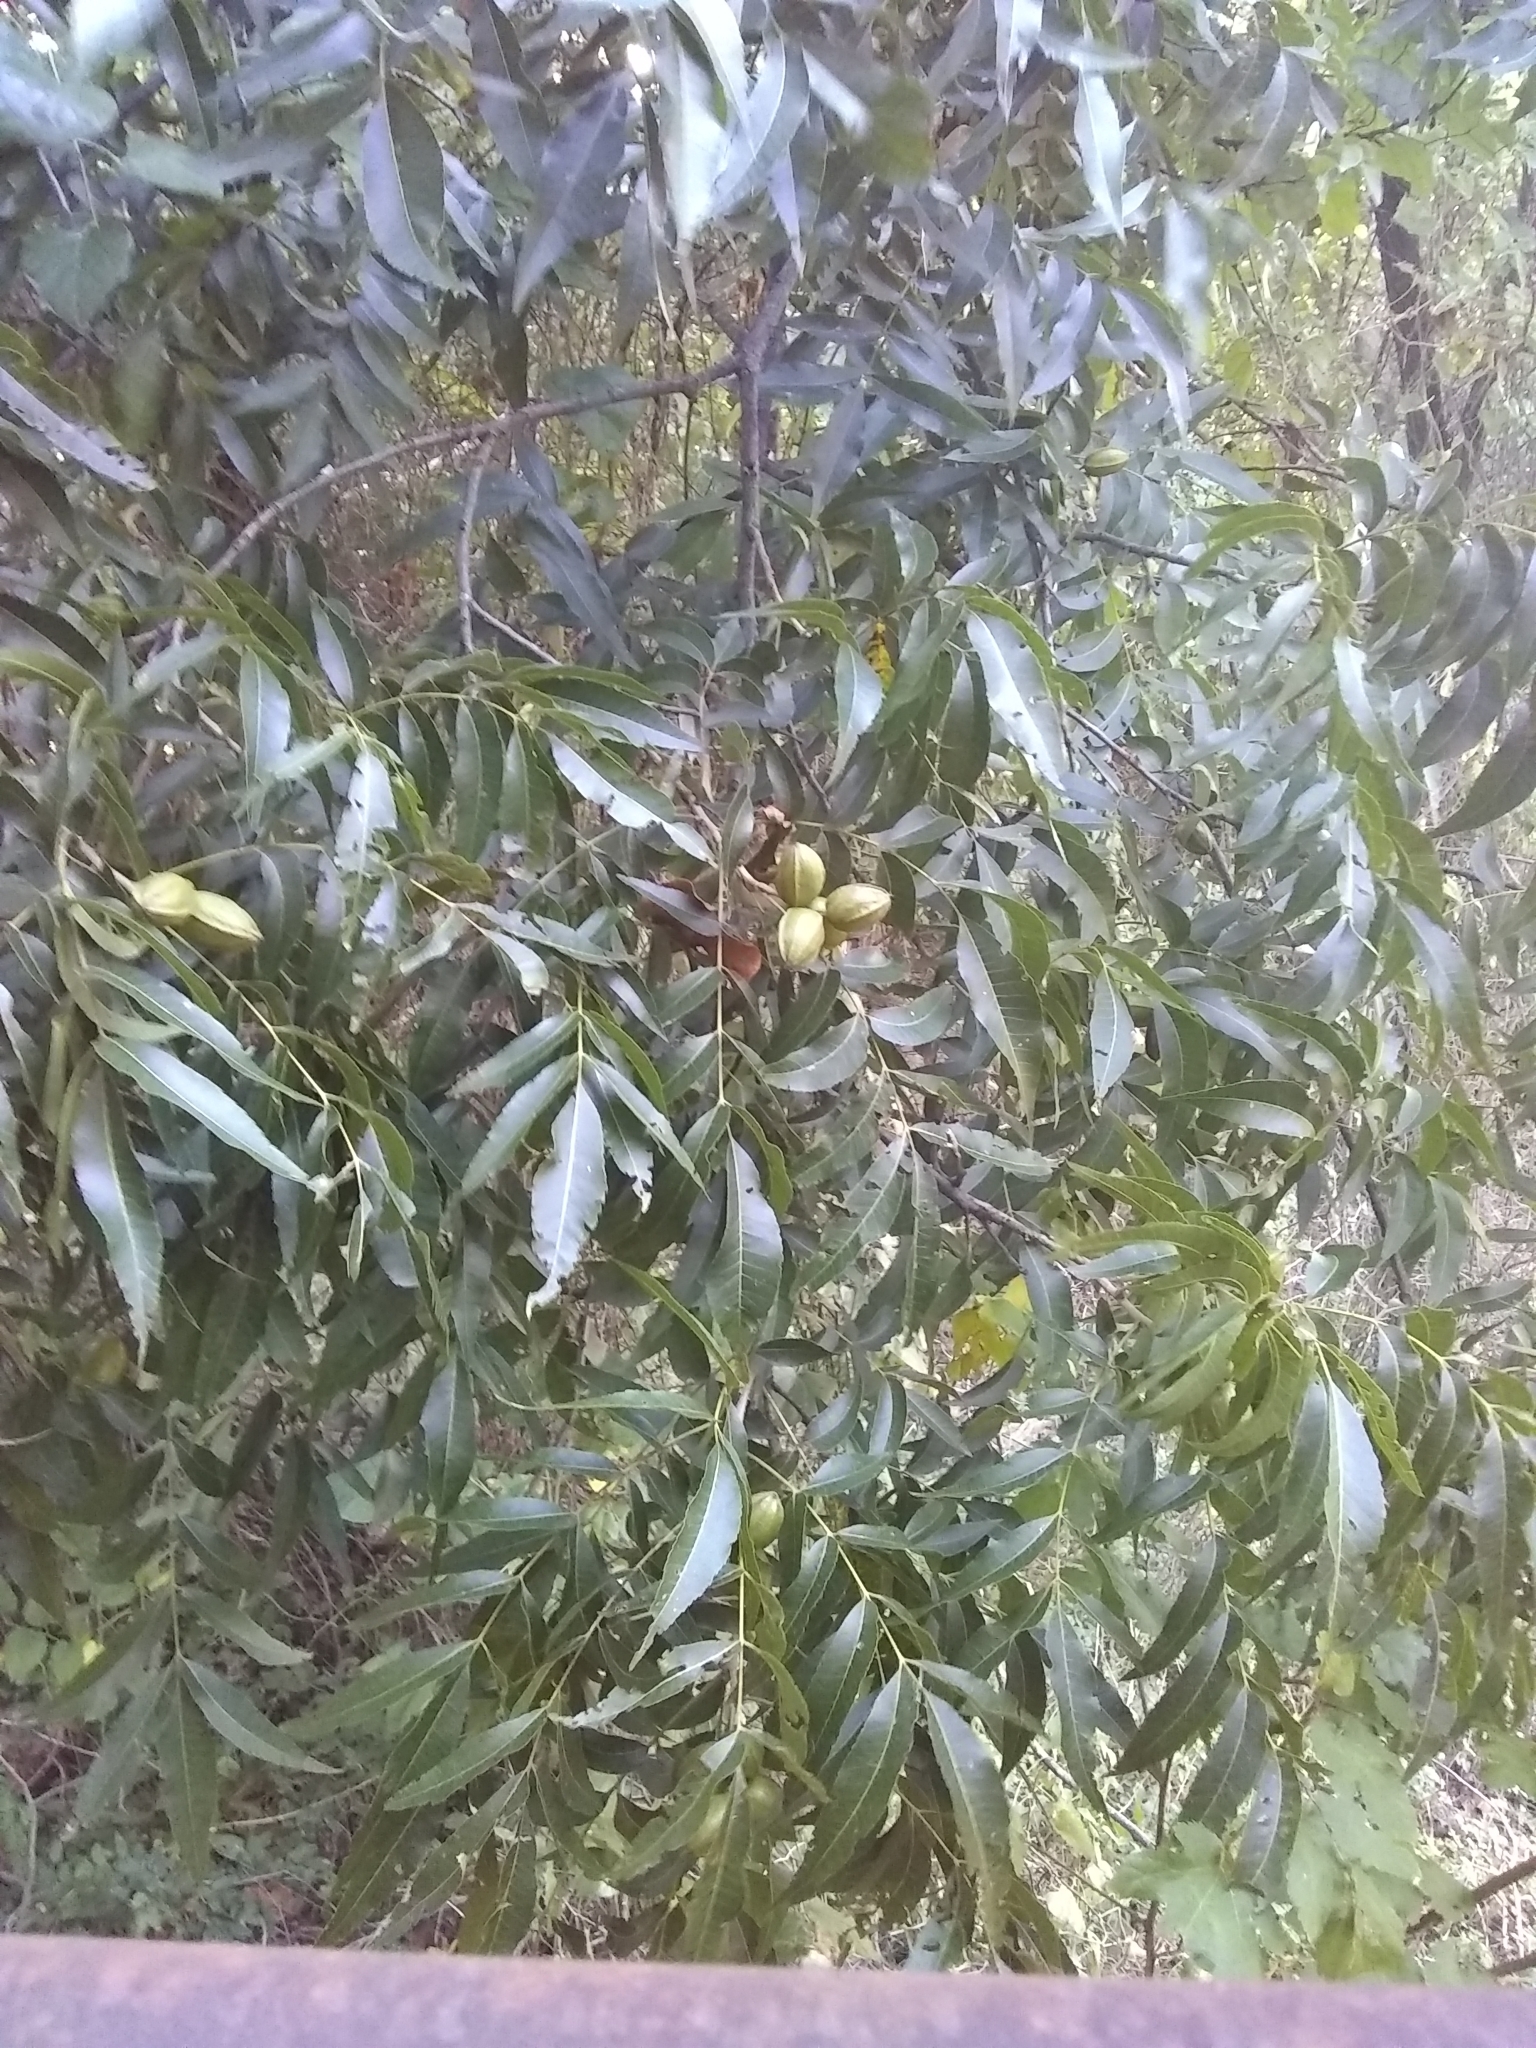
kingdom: Plantae
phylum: Tracheophyta
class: Magnoliopsida
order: Fagales
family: Juglandaceae
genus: Carya
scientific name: Carya illinoinensis
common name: Pecan
